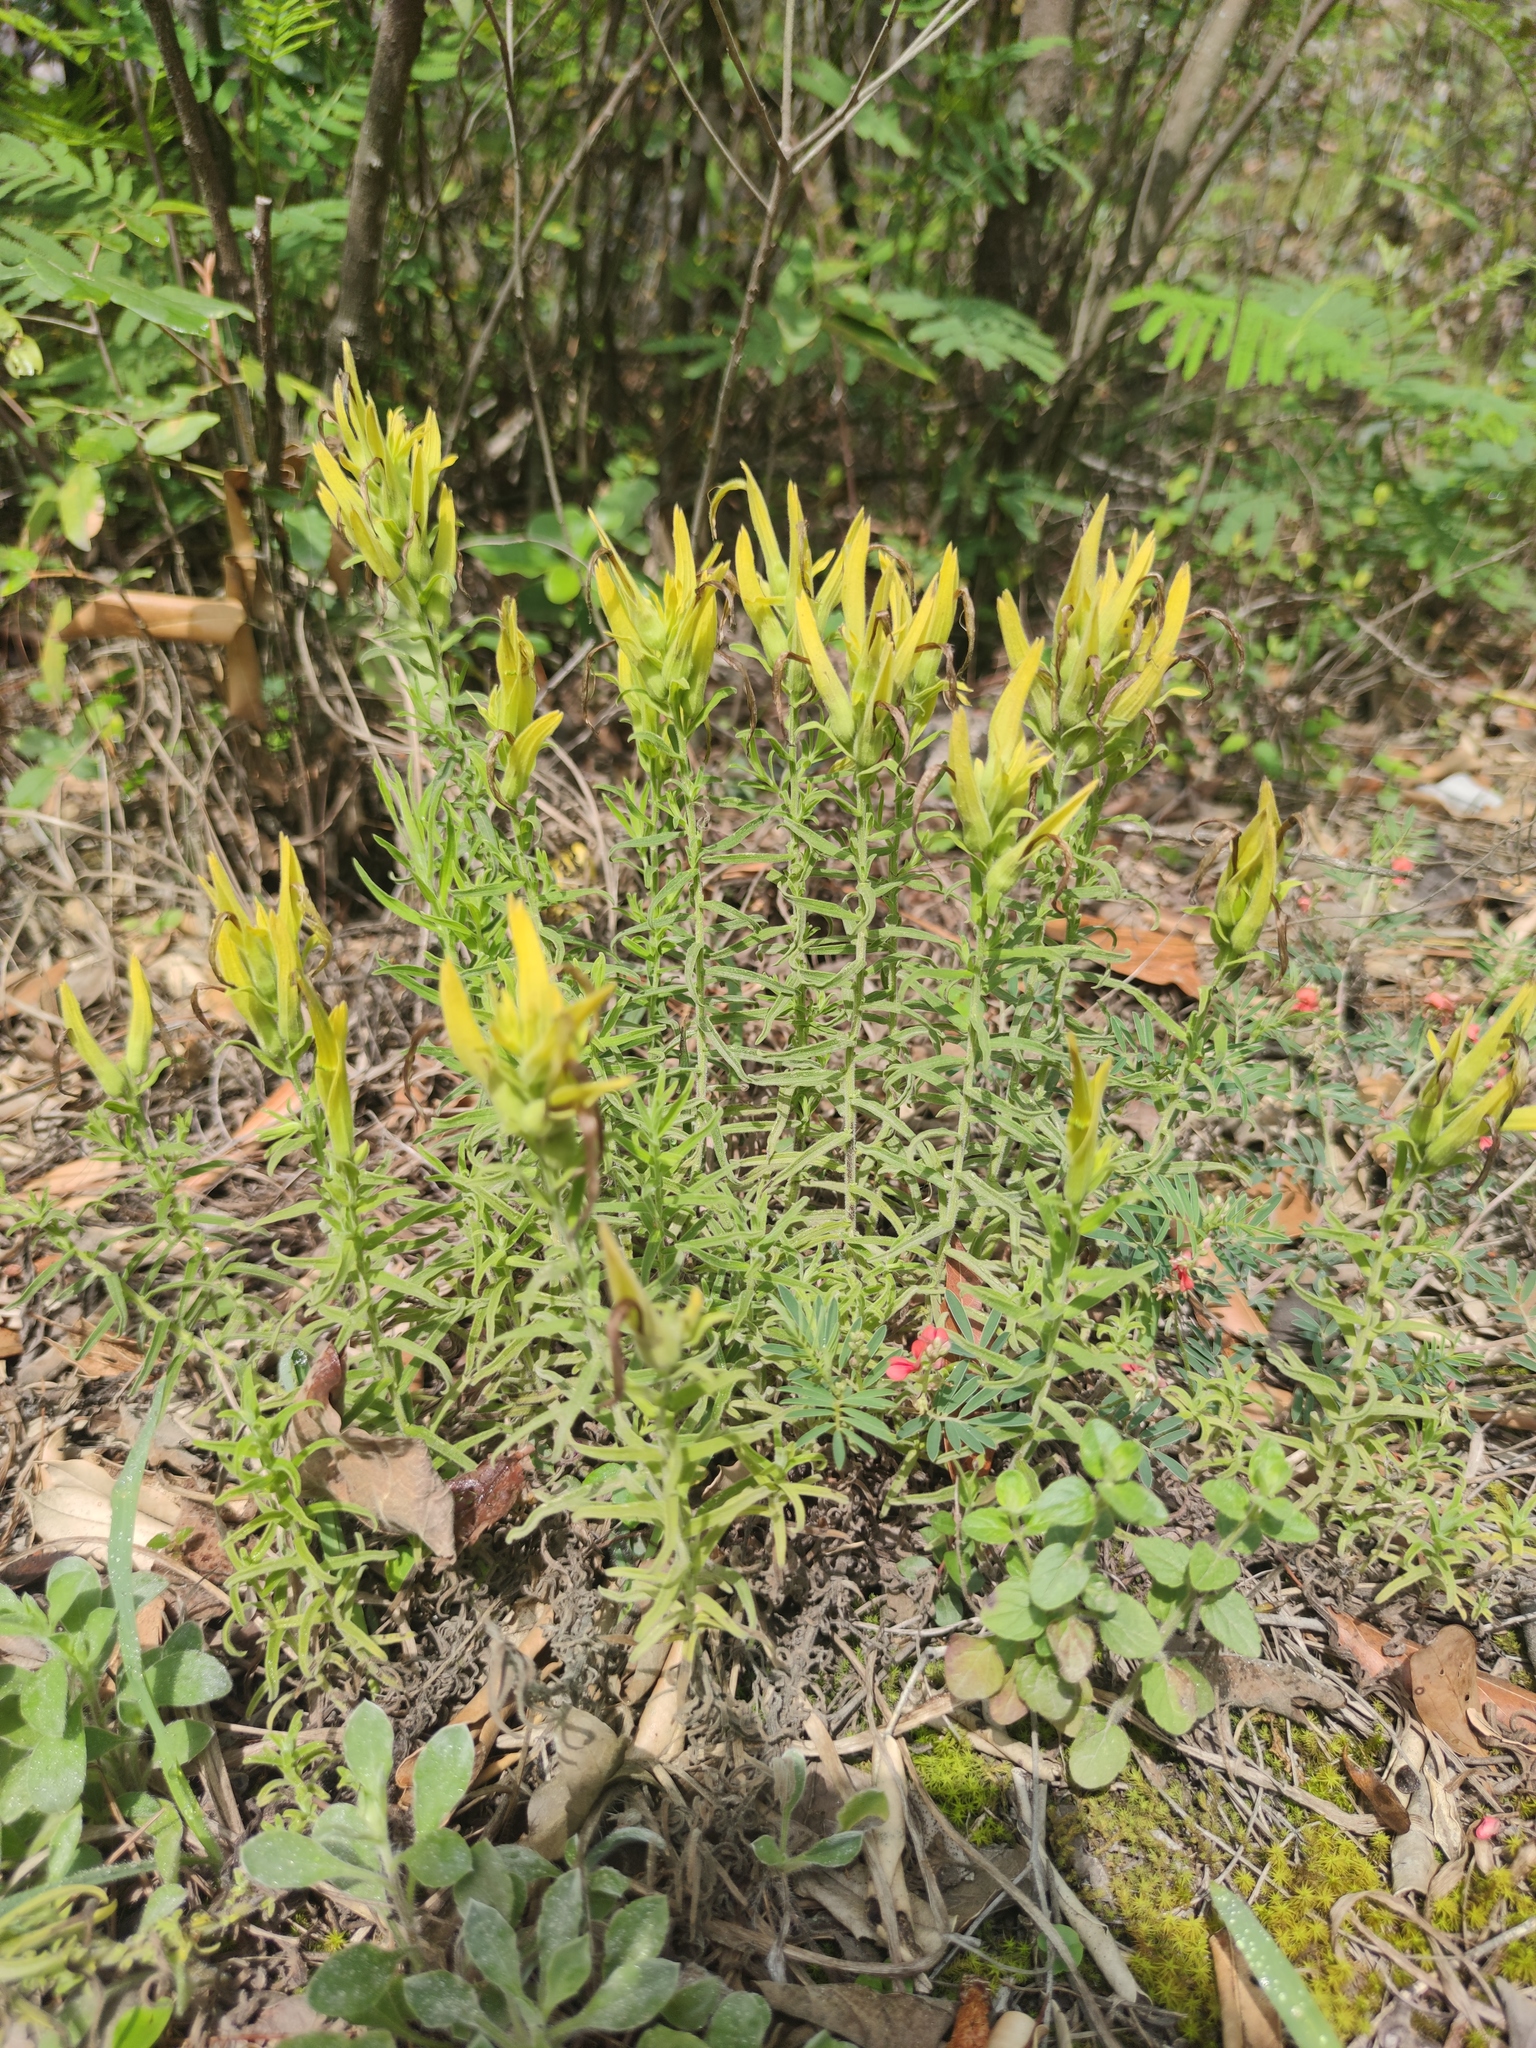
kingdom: Plantae
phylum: Tracheophyta
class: Magnoliopsida
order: Lamiales
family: Orobanchaceae
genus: Castilleja
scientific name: Castilleja tenuiflora
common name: Santa catalina indian paintbrush
